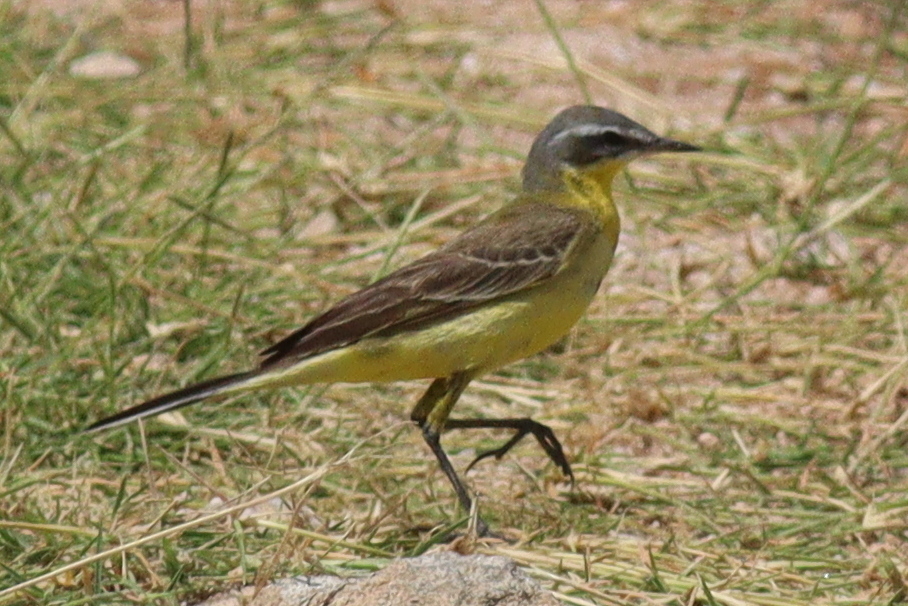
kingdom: Animalia
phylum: Chordata
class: Aves
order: Passeriformes
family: Motacillidae
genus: Motacilla
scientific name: Motacilla flava
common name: Western yellow wagtail
